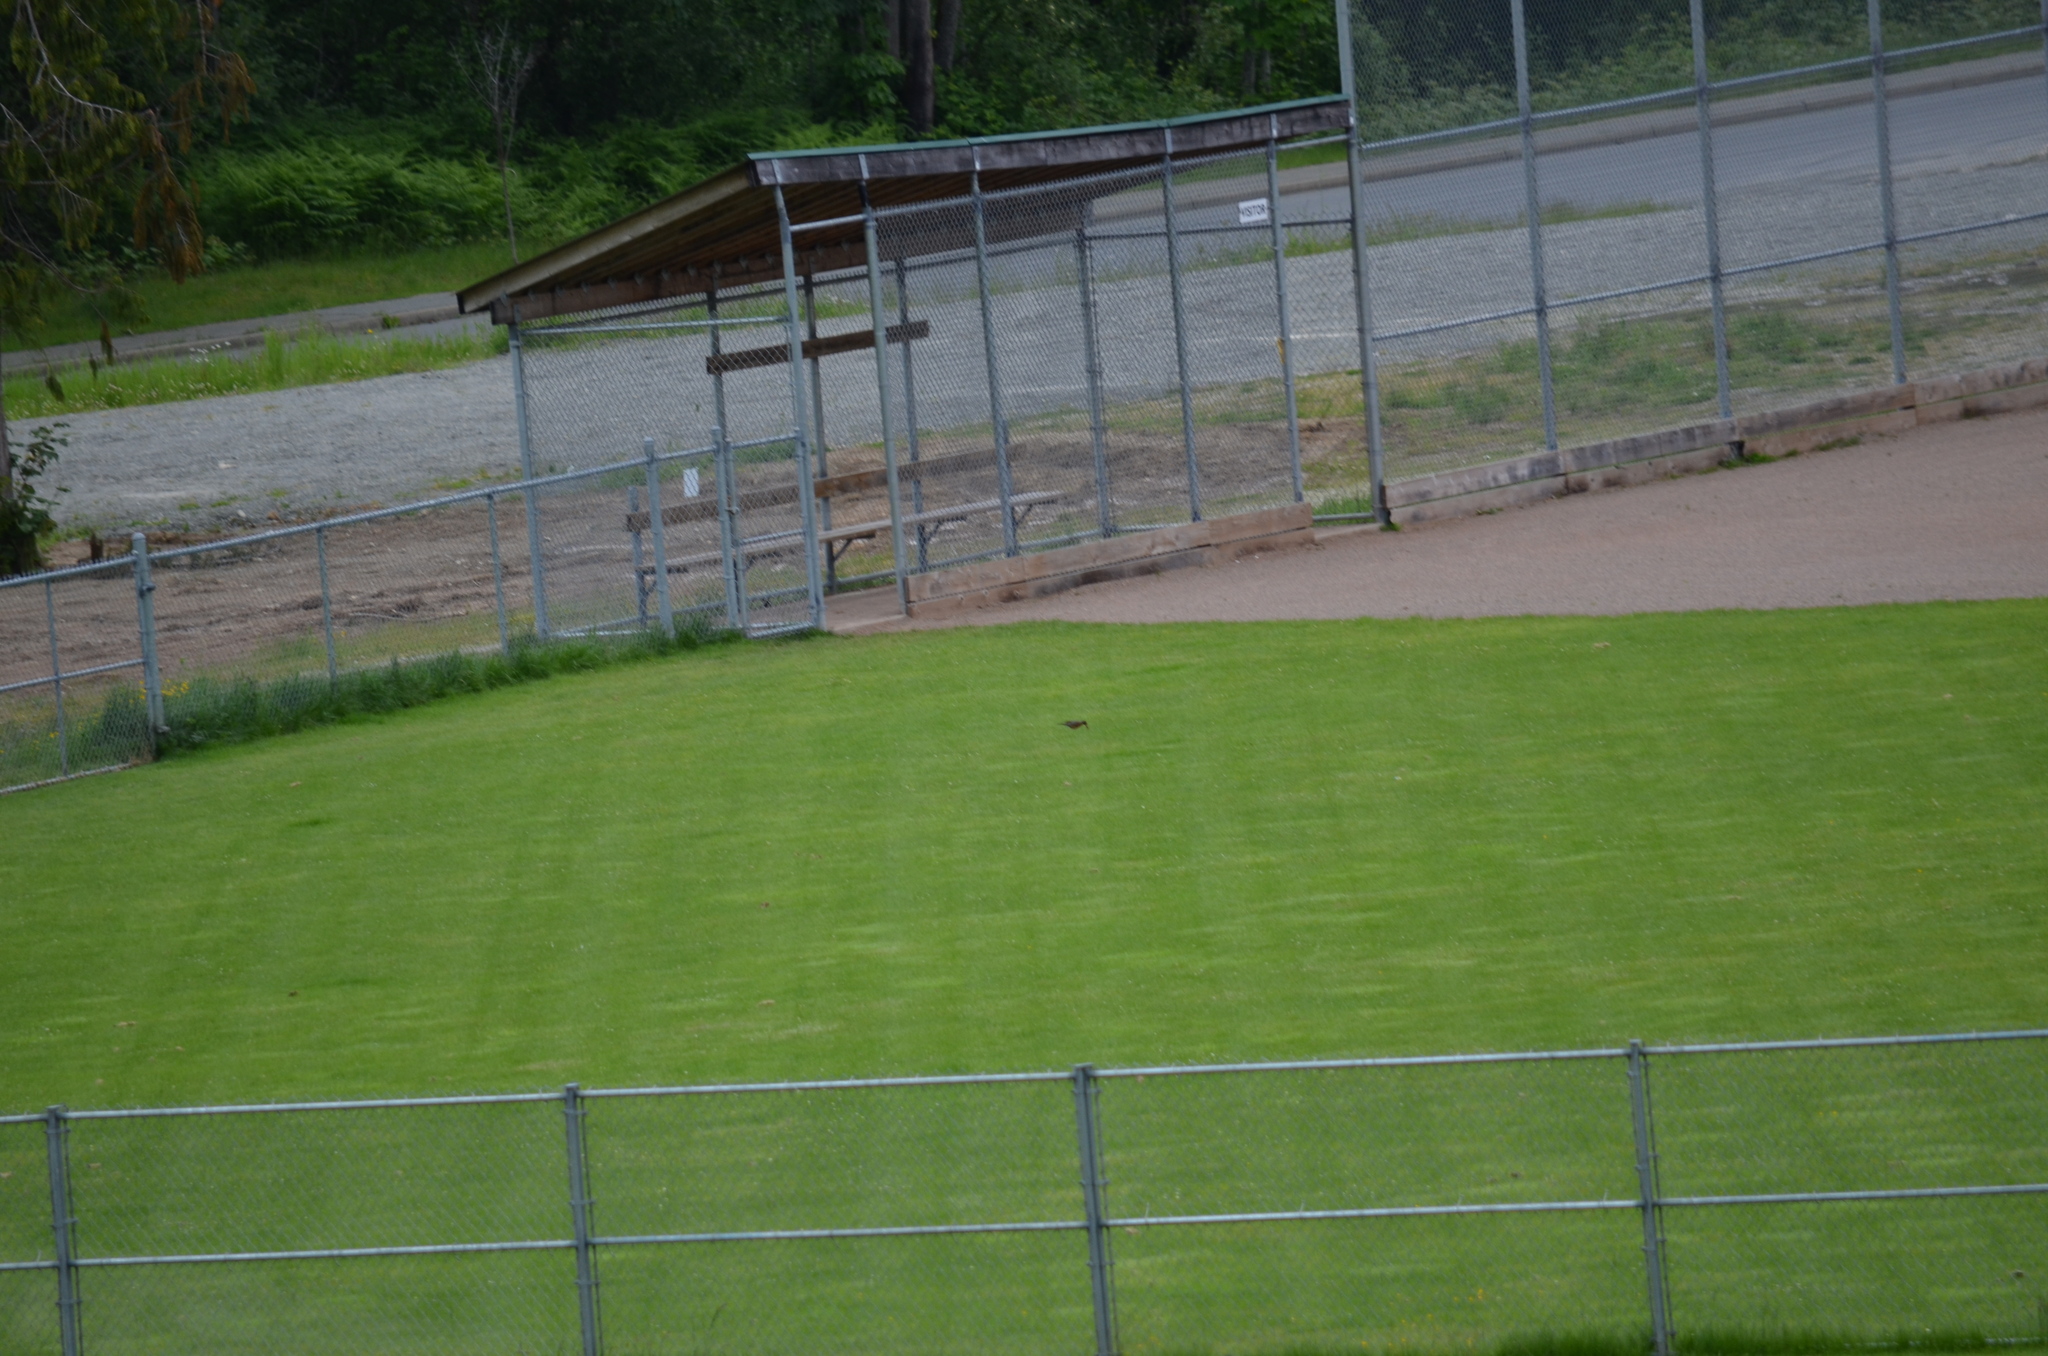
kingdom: Animalia
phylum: Chordata
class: Aves
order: Passeriformes
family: Turdidae
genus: Turdus
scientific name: Turdus migratorius
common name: American robin
